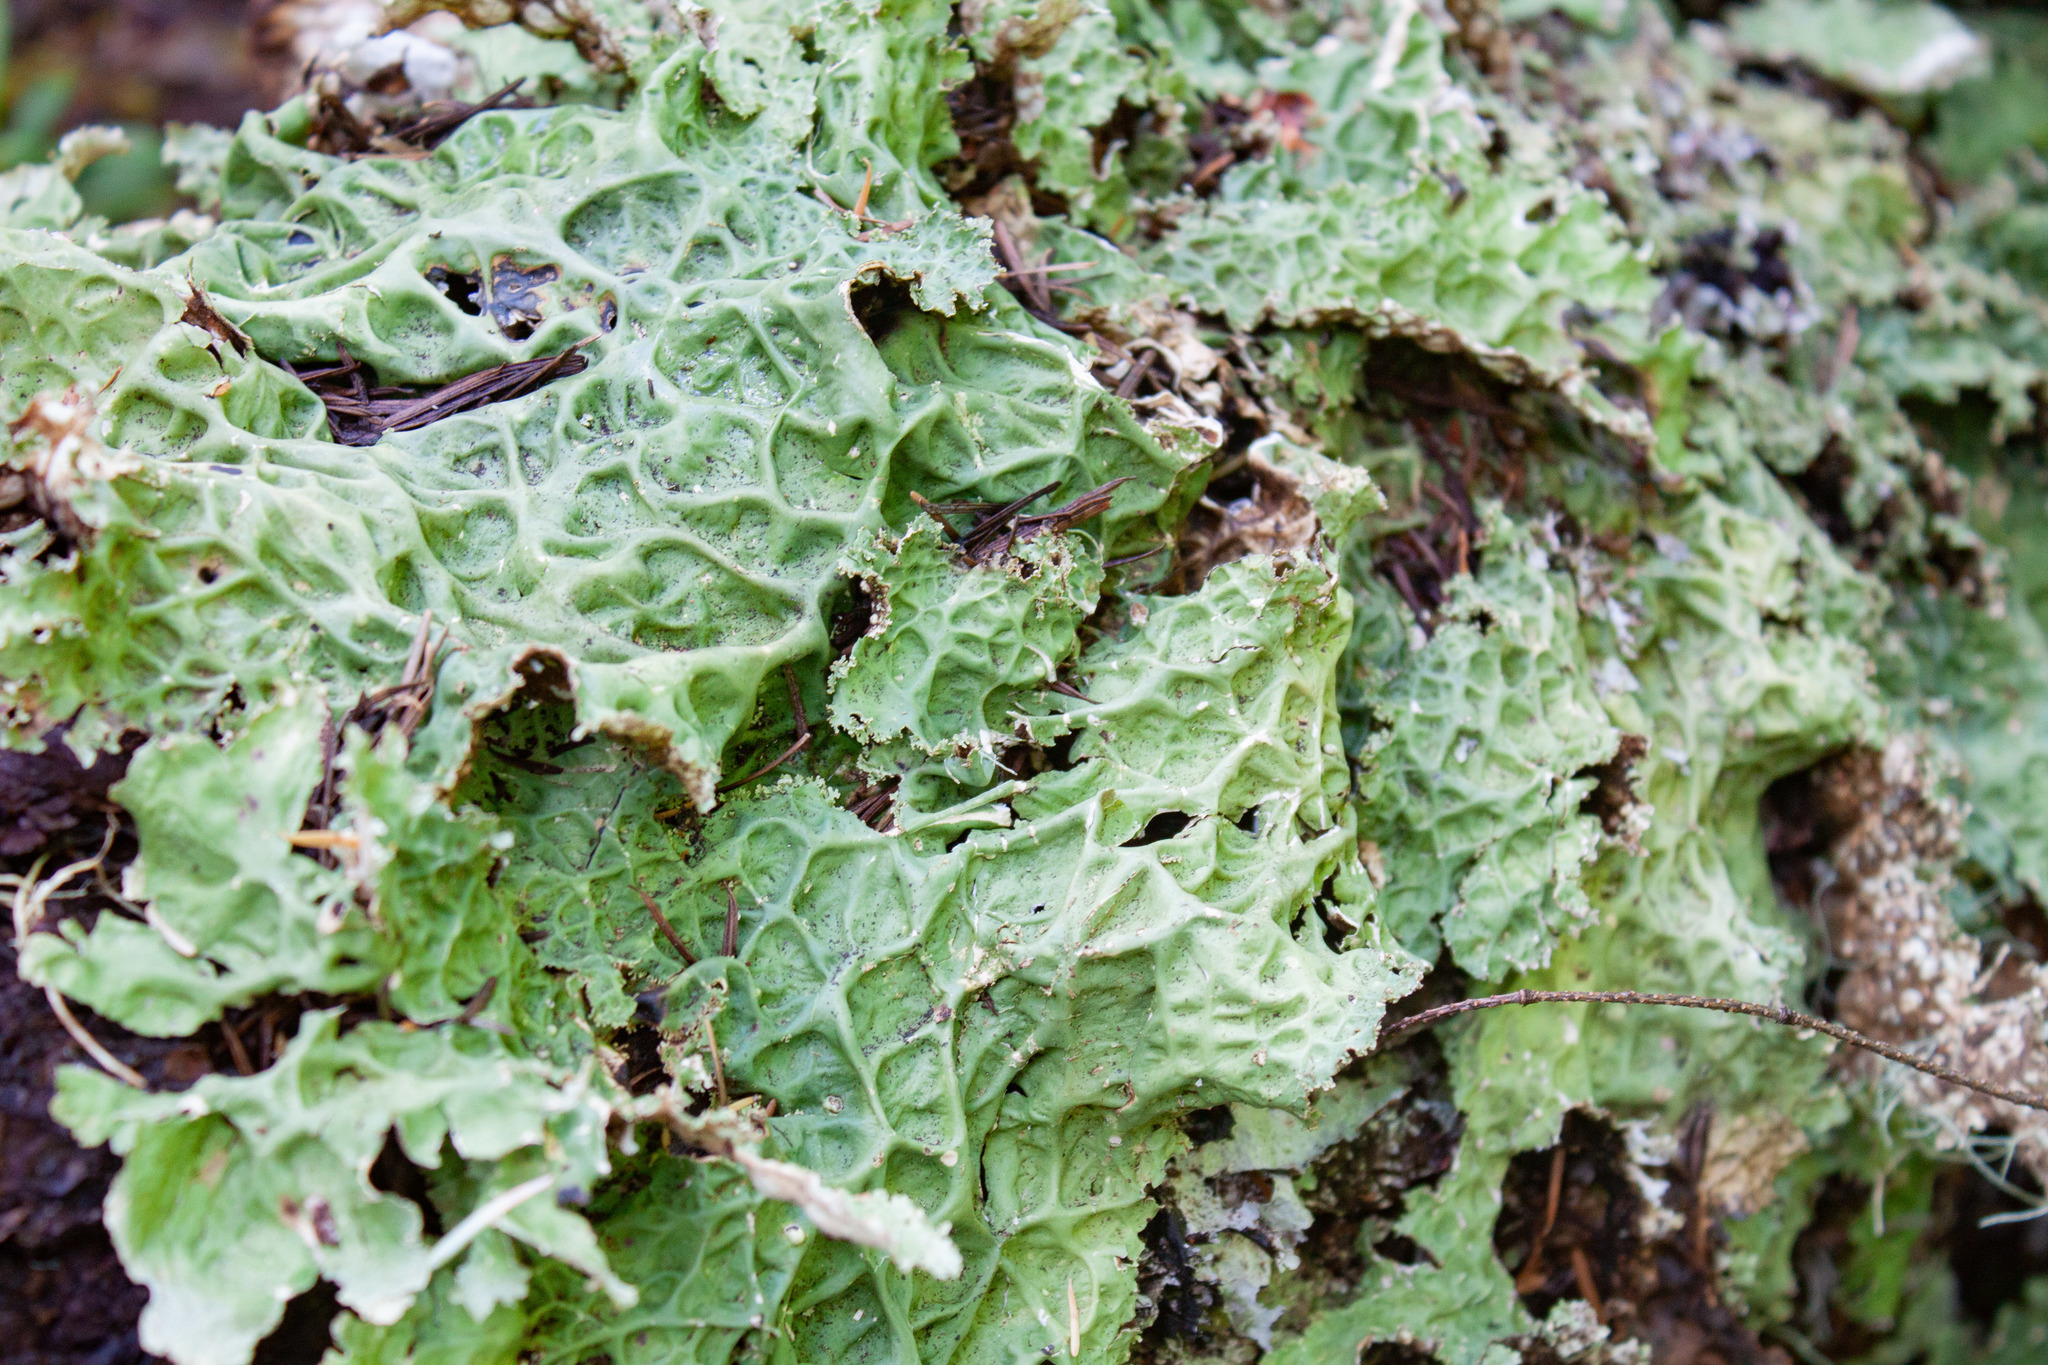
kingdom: Fungi
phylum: Ascomycota
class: Lecanoromycetes
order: Peltigerales
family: Lobariaceae
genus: Lobaria
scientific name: Lobaria oregana
